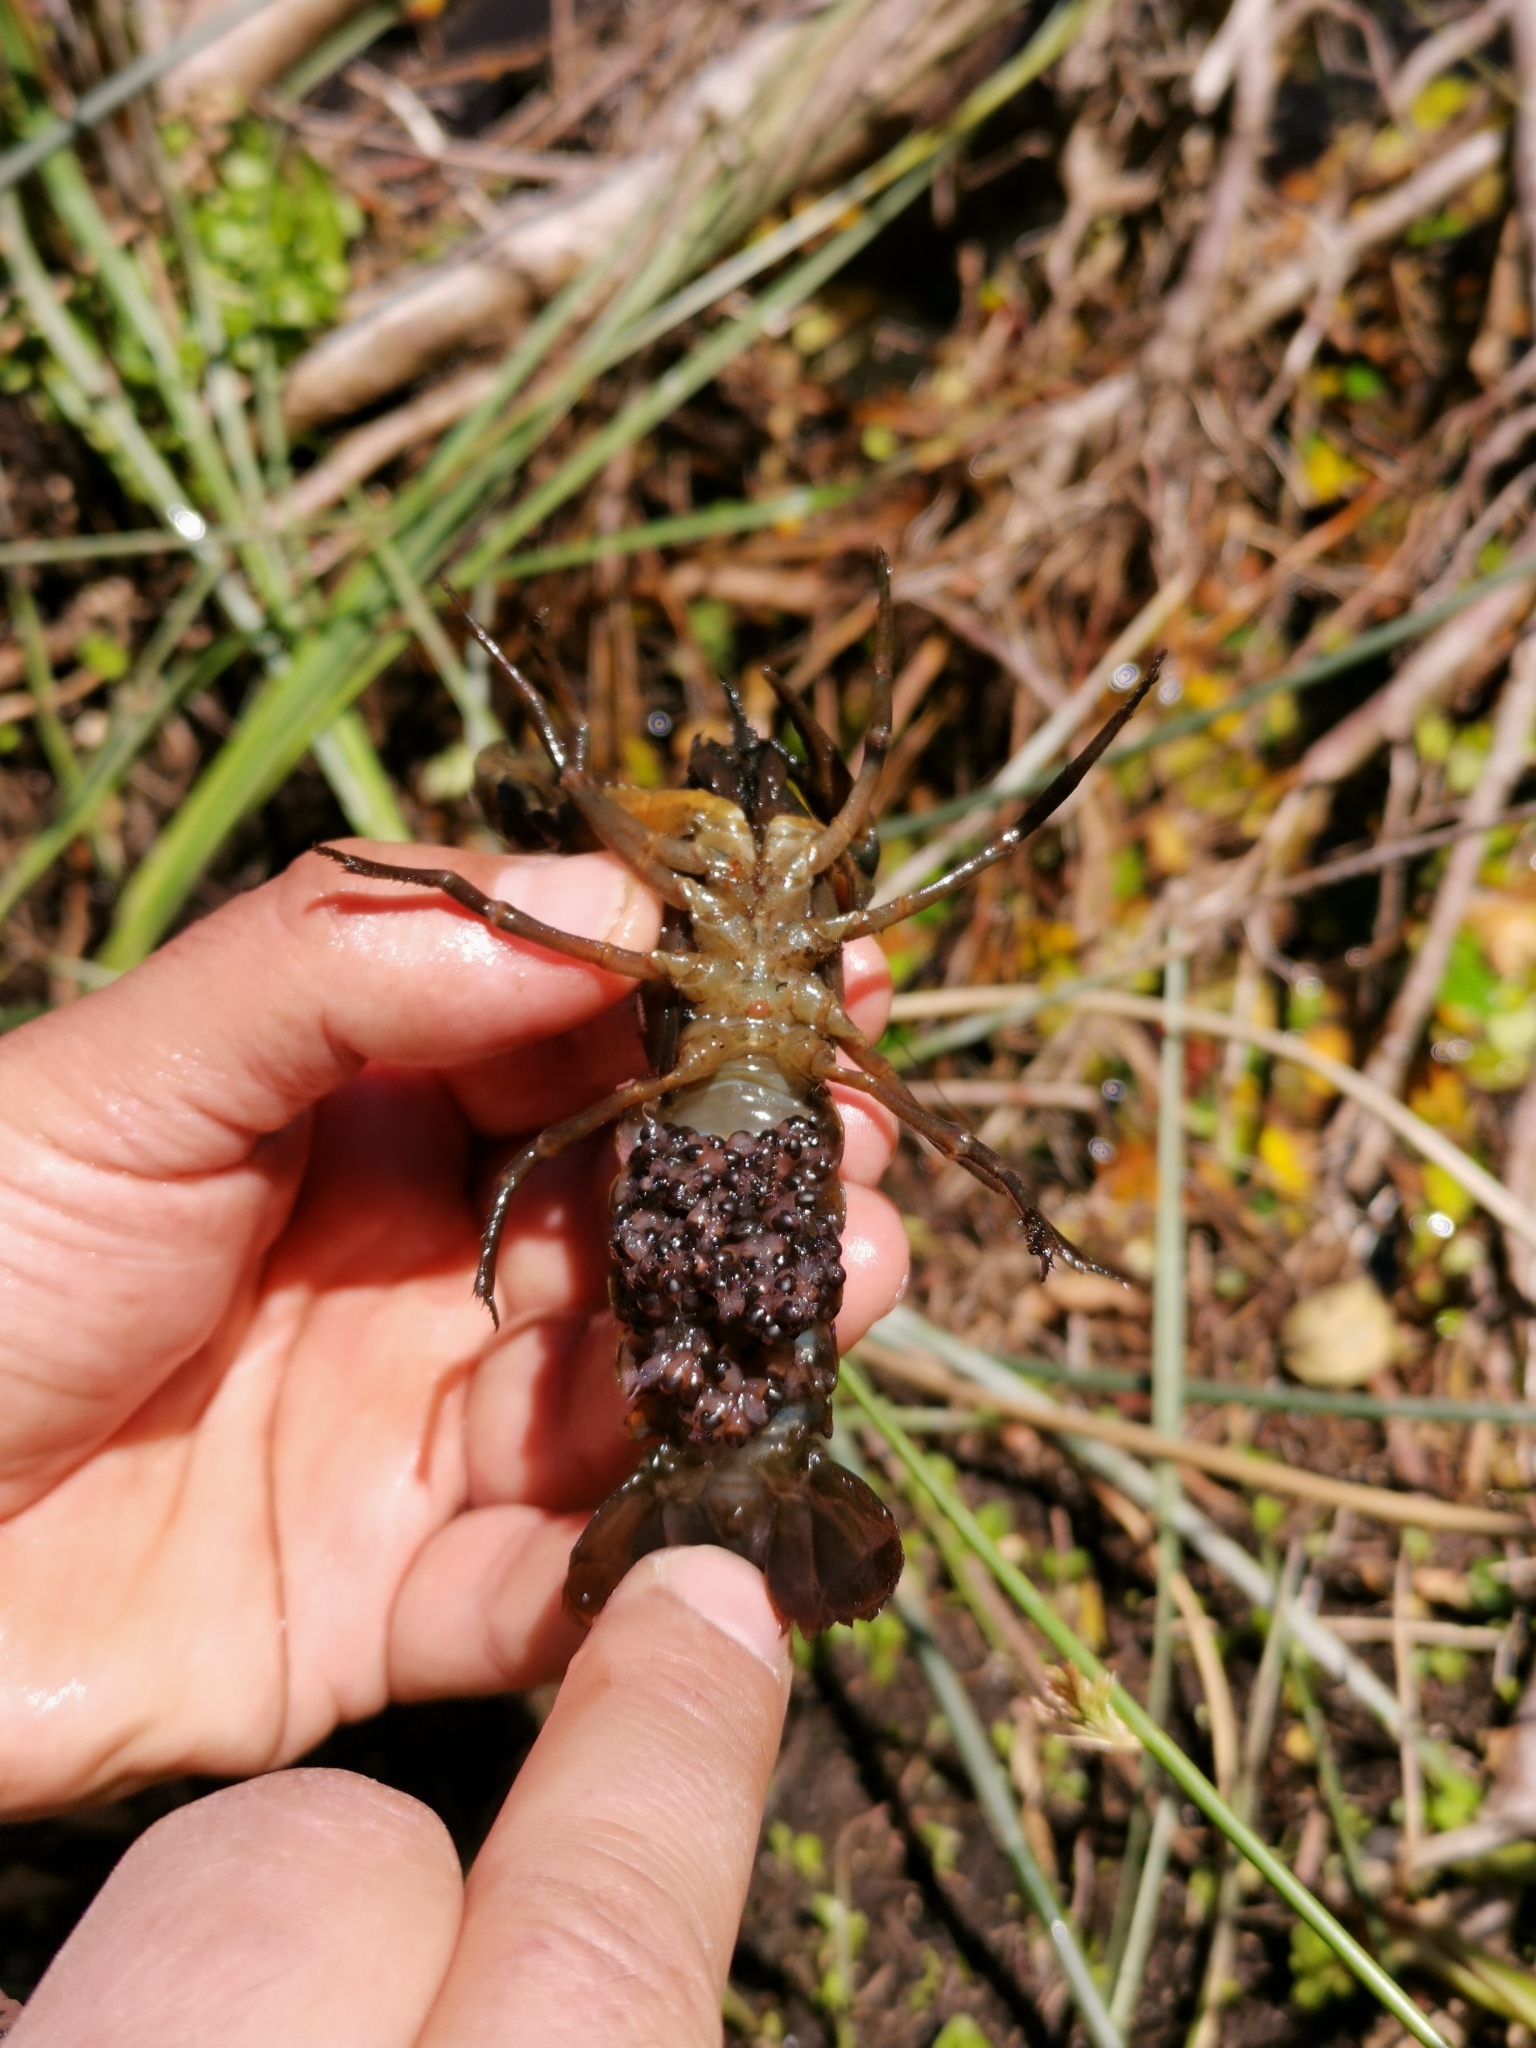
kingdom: Animalia
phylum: Arthropoda
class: Malacostraca
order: Decapoda
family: Parastacidae
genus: Samastacus
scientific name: Samastacus spinifrons
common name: River crayfish
